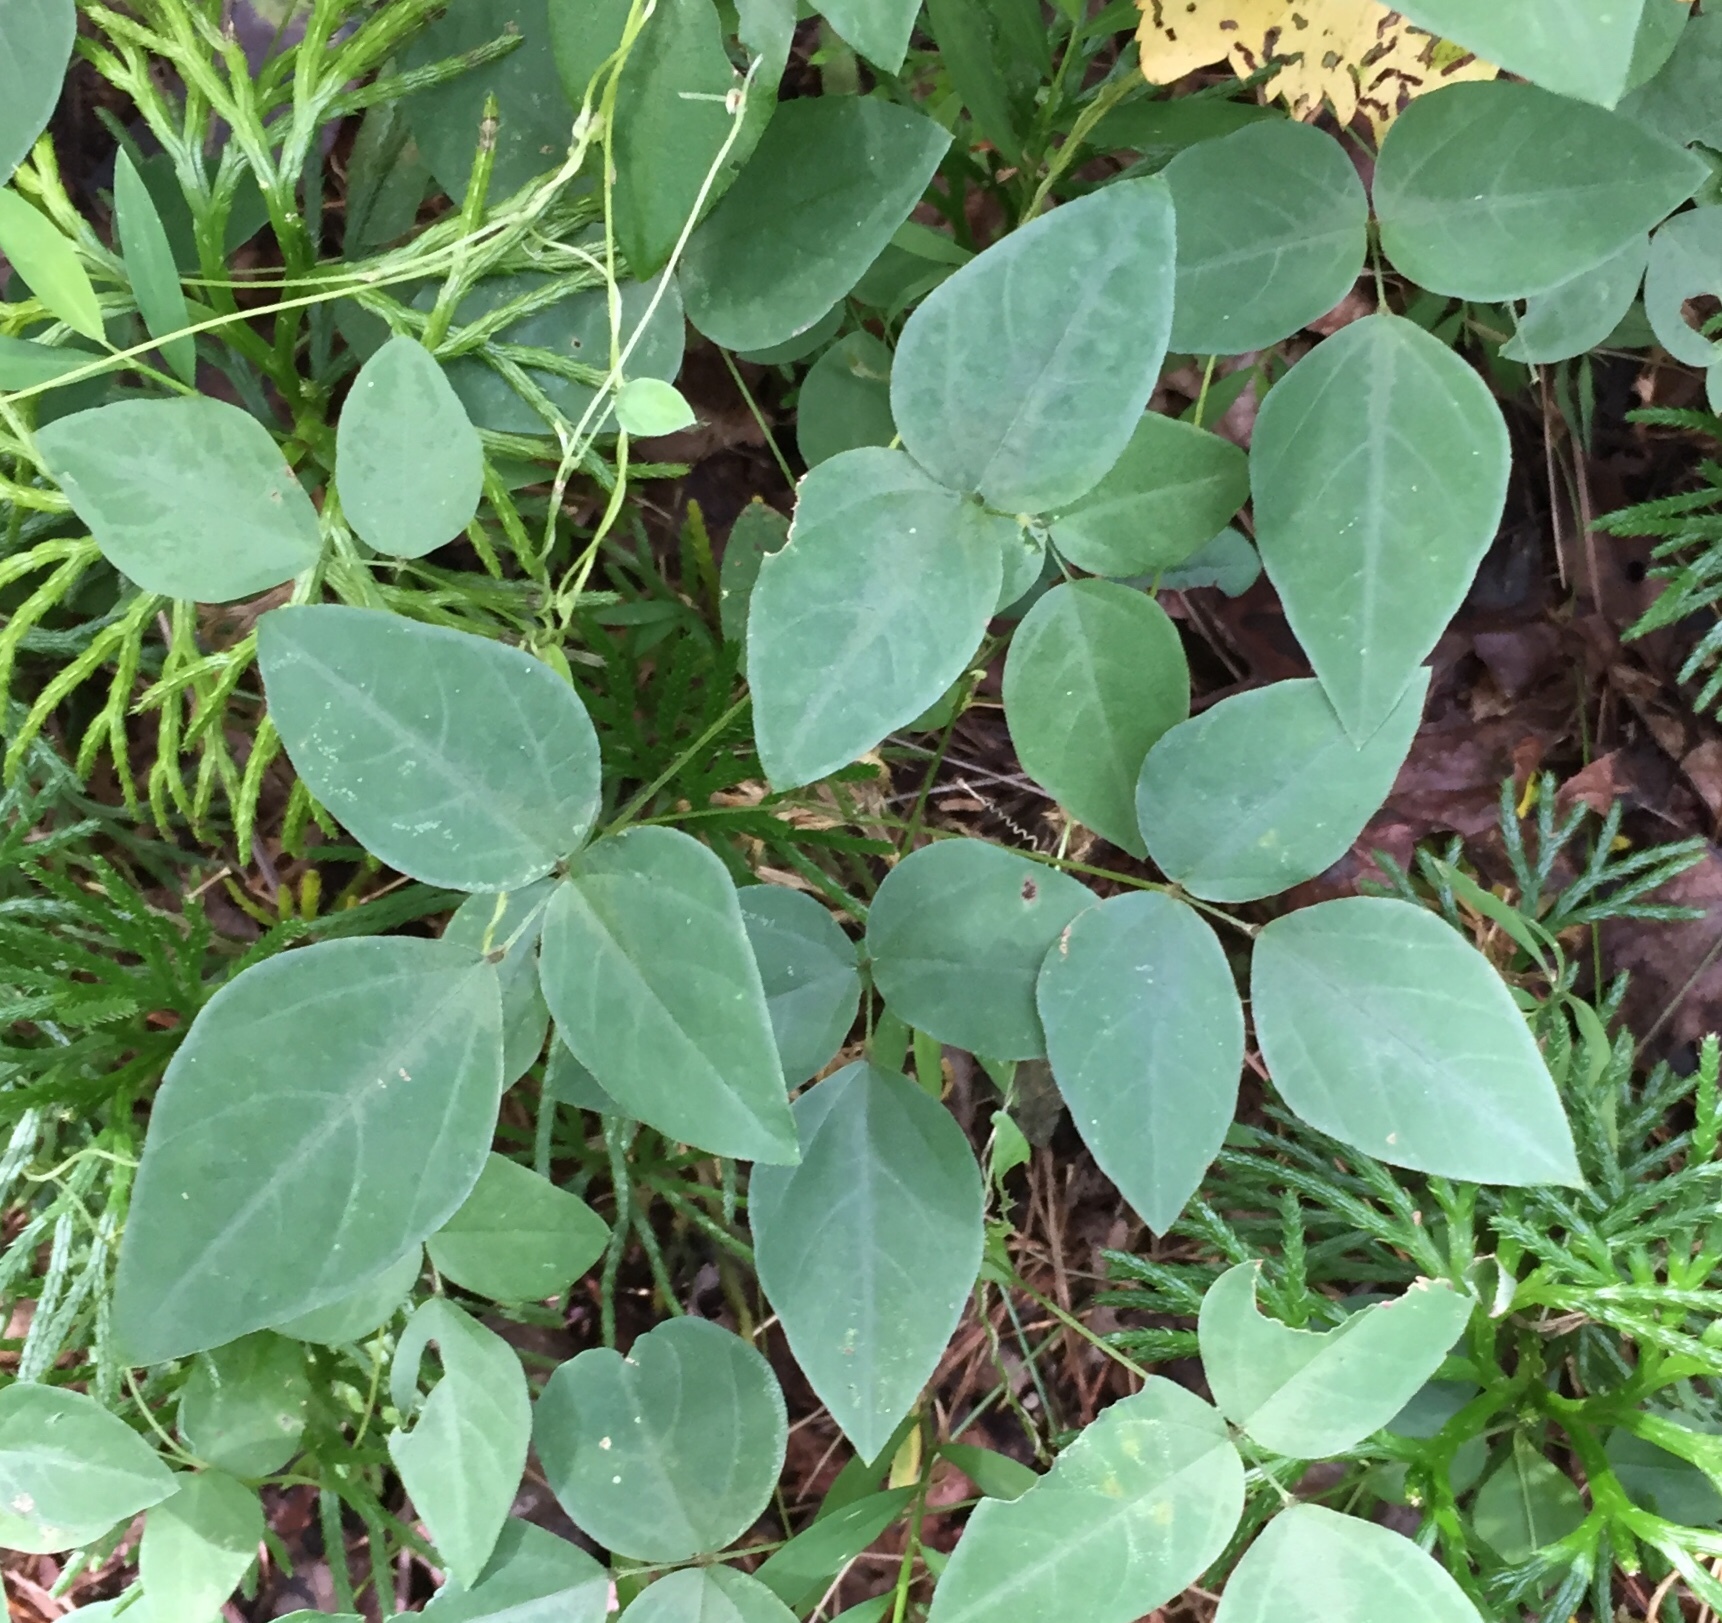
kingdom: Plantae
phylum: Tracheophyta
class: Magnoliopsida
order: Fabales
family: Fabaceae
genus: Amphicarpaea
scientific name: Amphicarpaea bracteata
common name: American hog peanut
